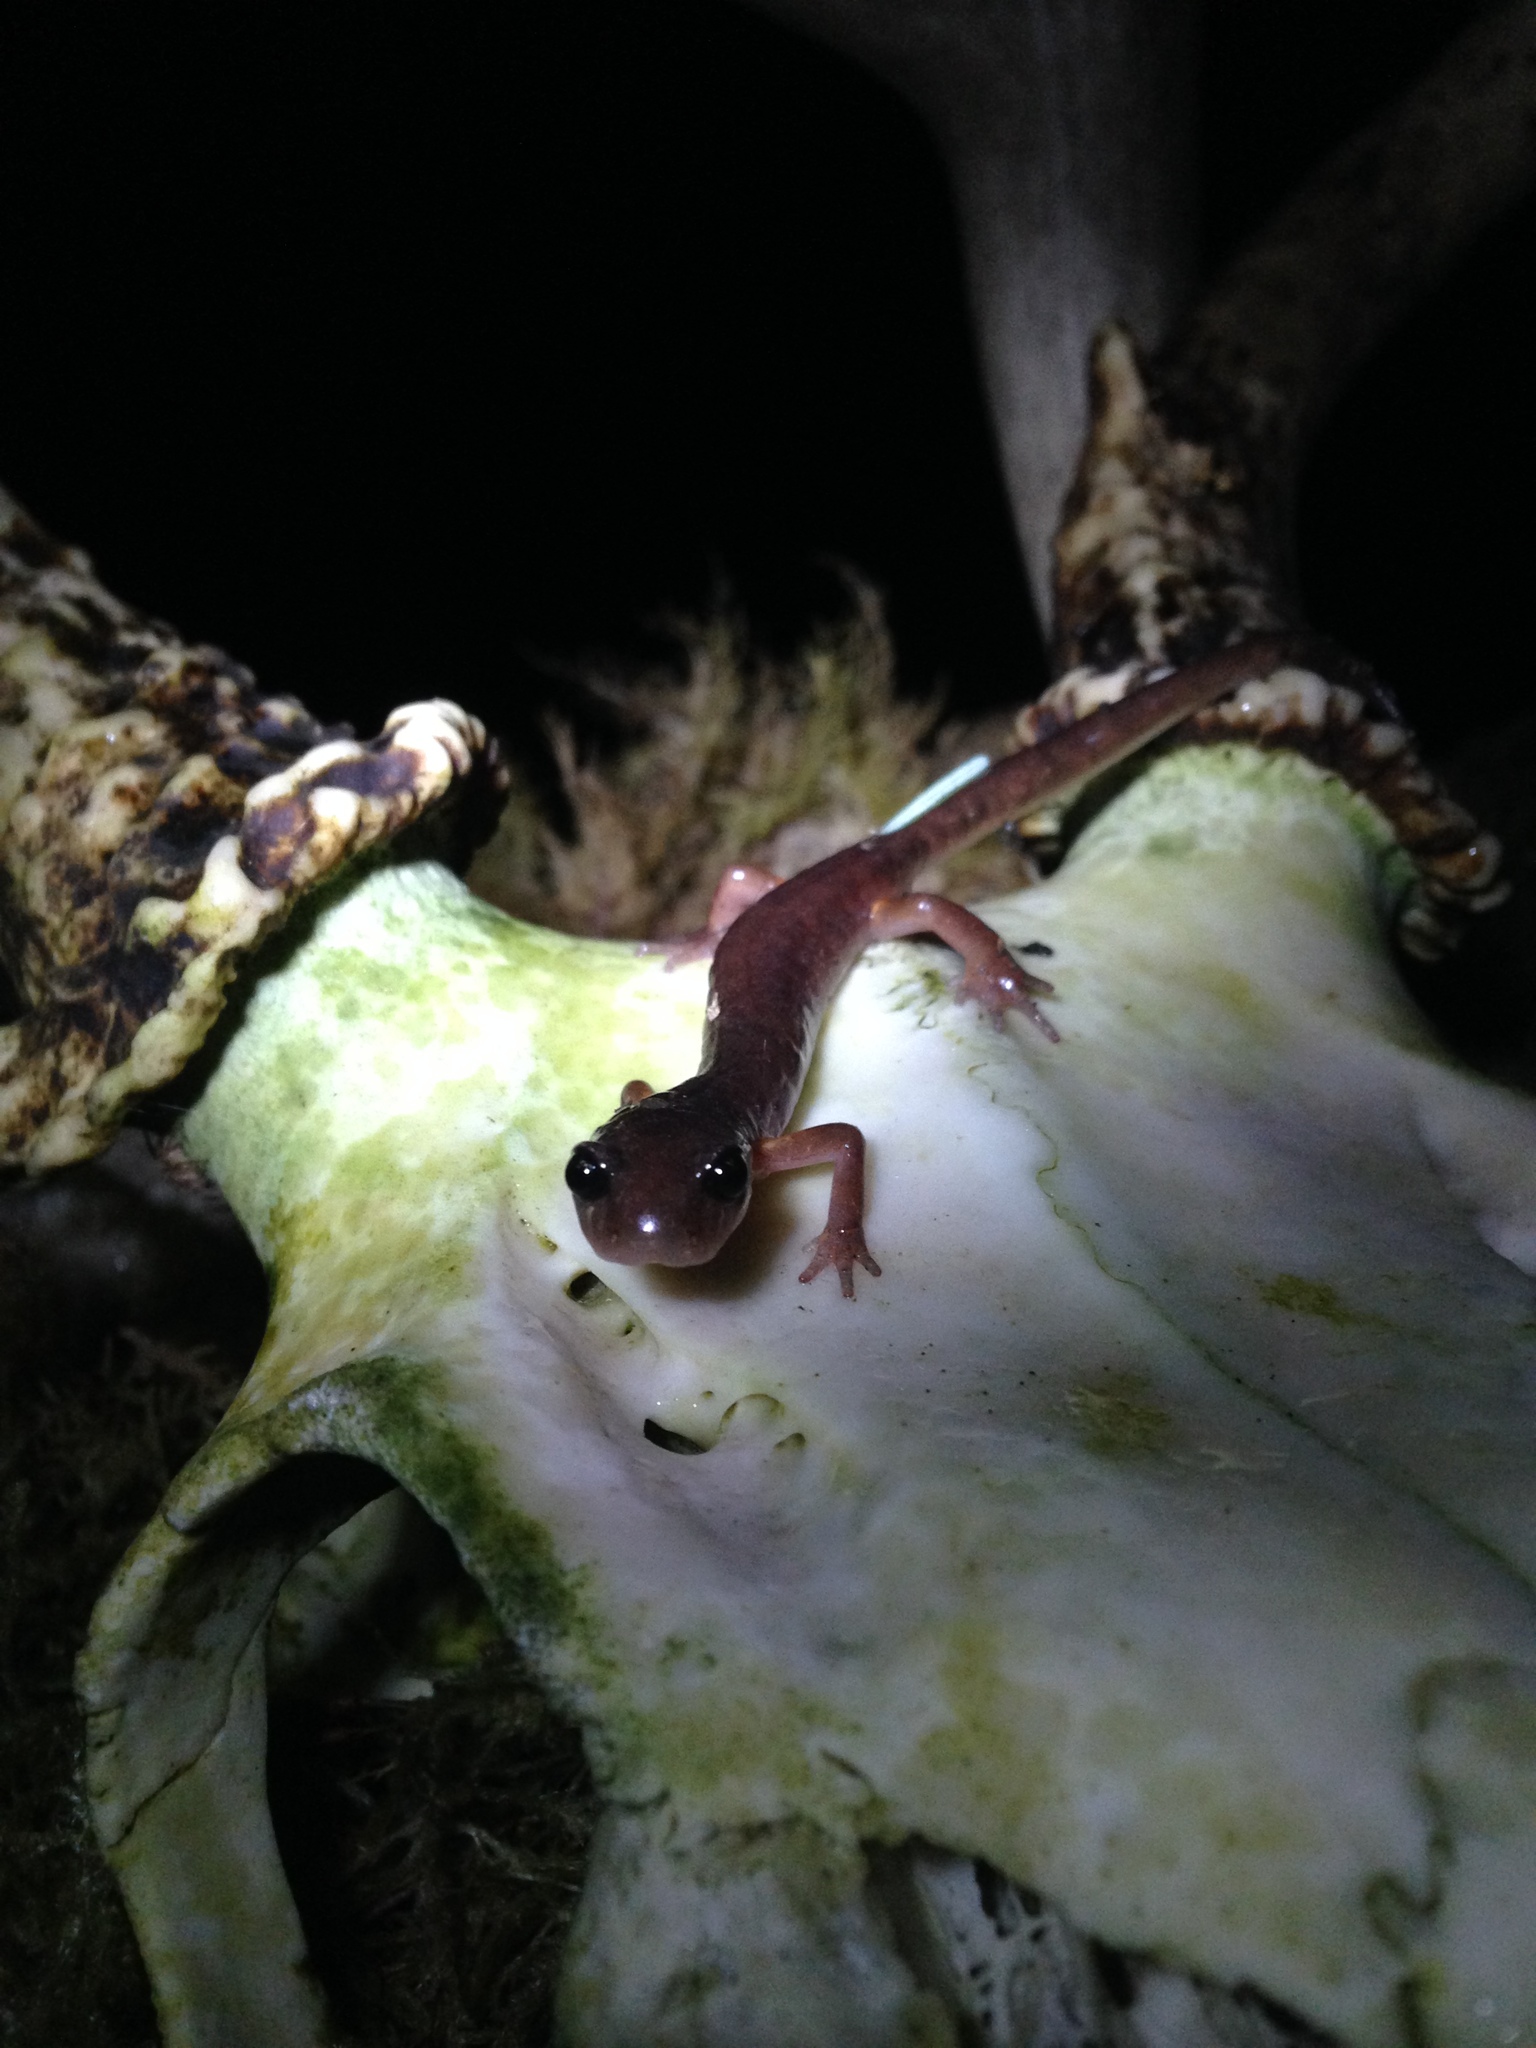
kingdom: Animalia
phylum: Chordata
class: Amphibia
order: Caudata
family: Plethodontidae
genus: Ensatina
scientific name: Ensatina eschscholtzii
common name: Ensatina
